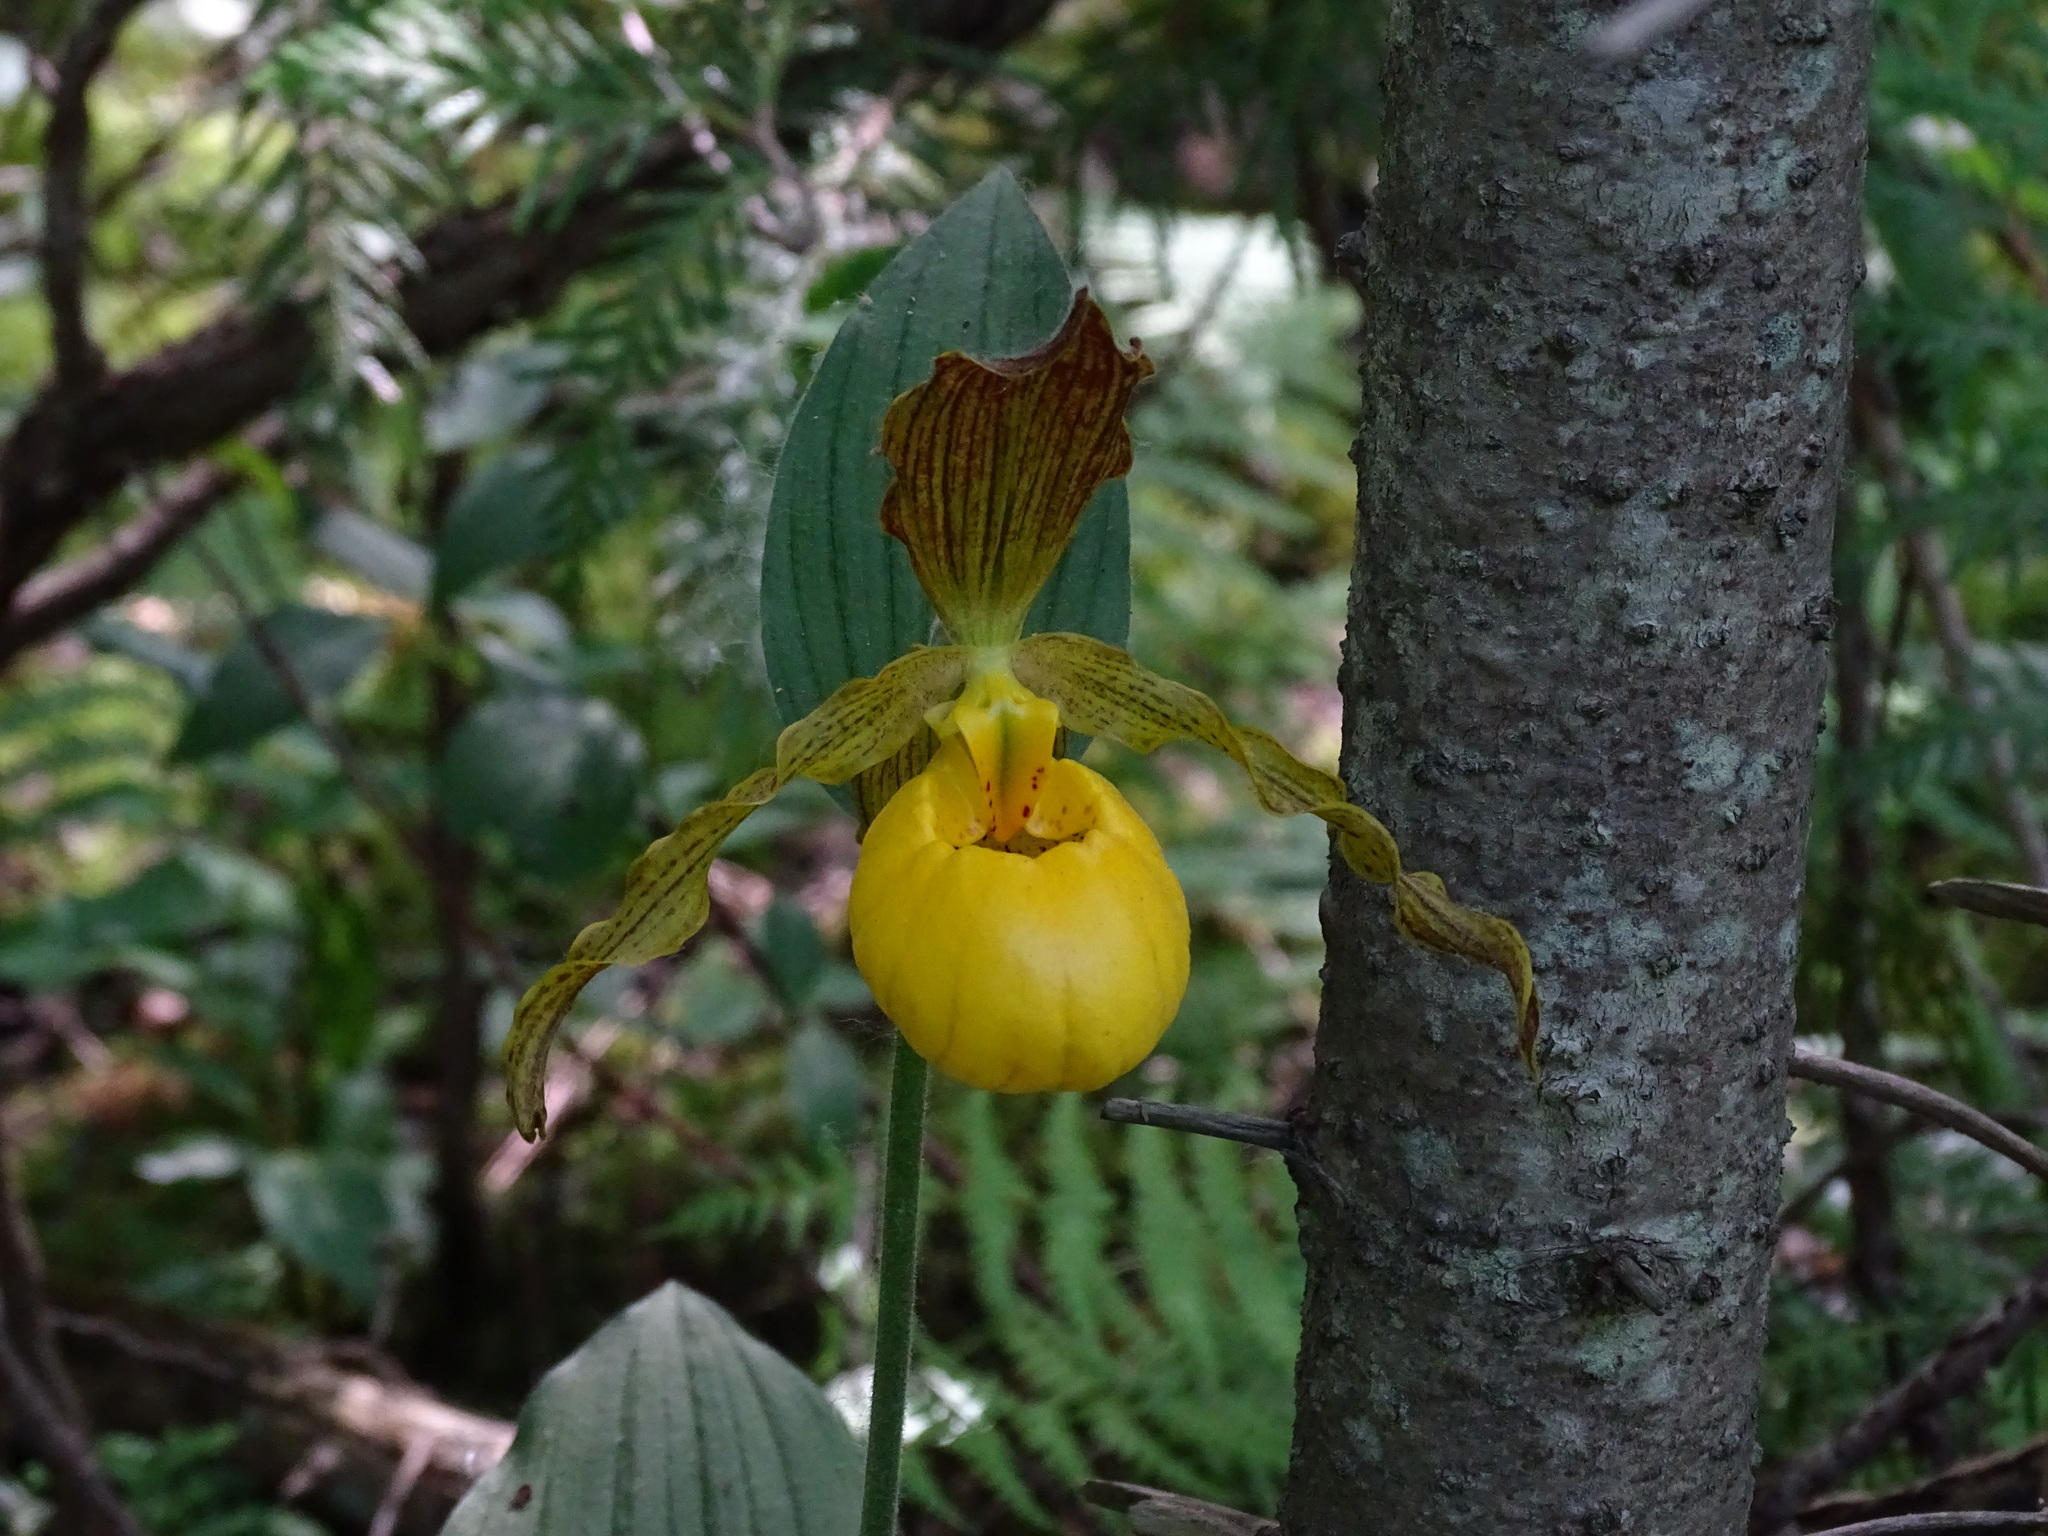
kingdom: Plantae
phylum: Tracheophyta
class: Liliopsida
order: Asparagales
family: Orchidaceae
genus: Cypripedium
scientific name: Cypripedium parviflorum
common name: American yellow lady's-slipper
